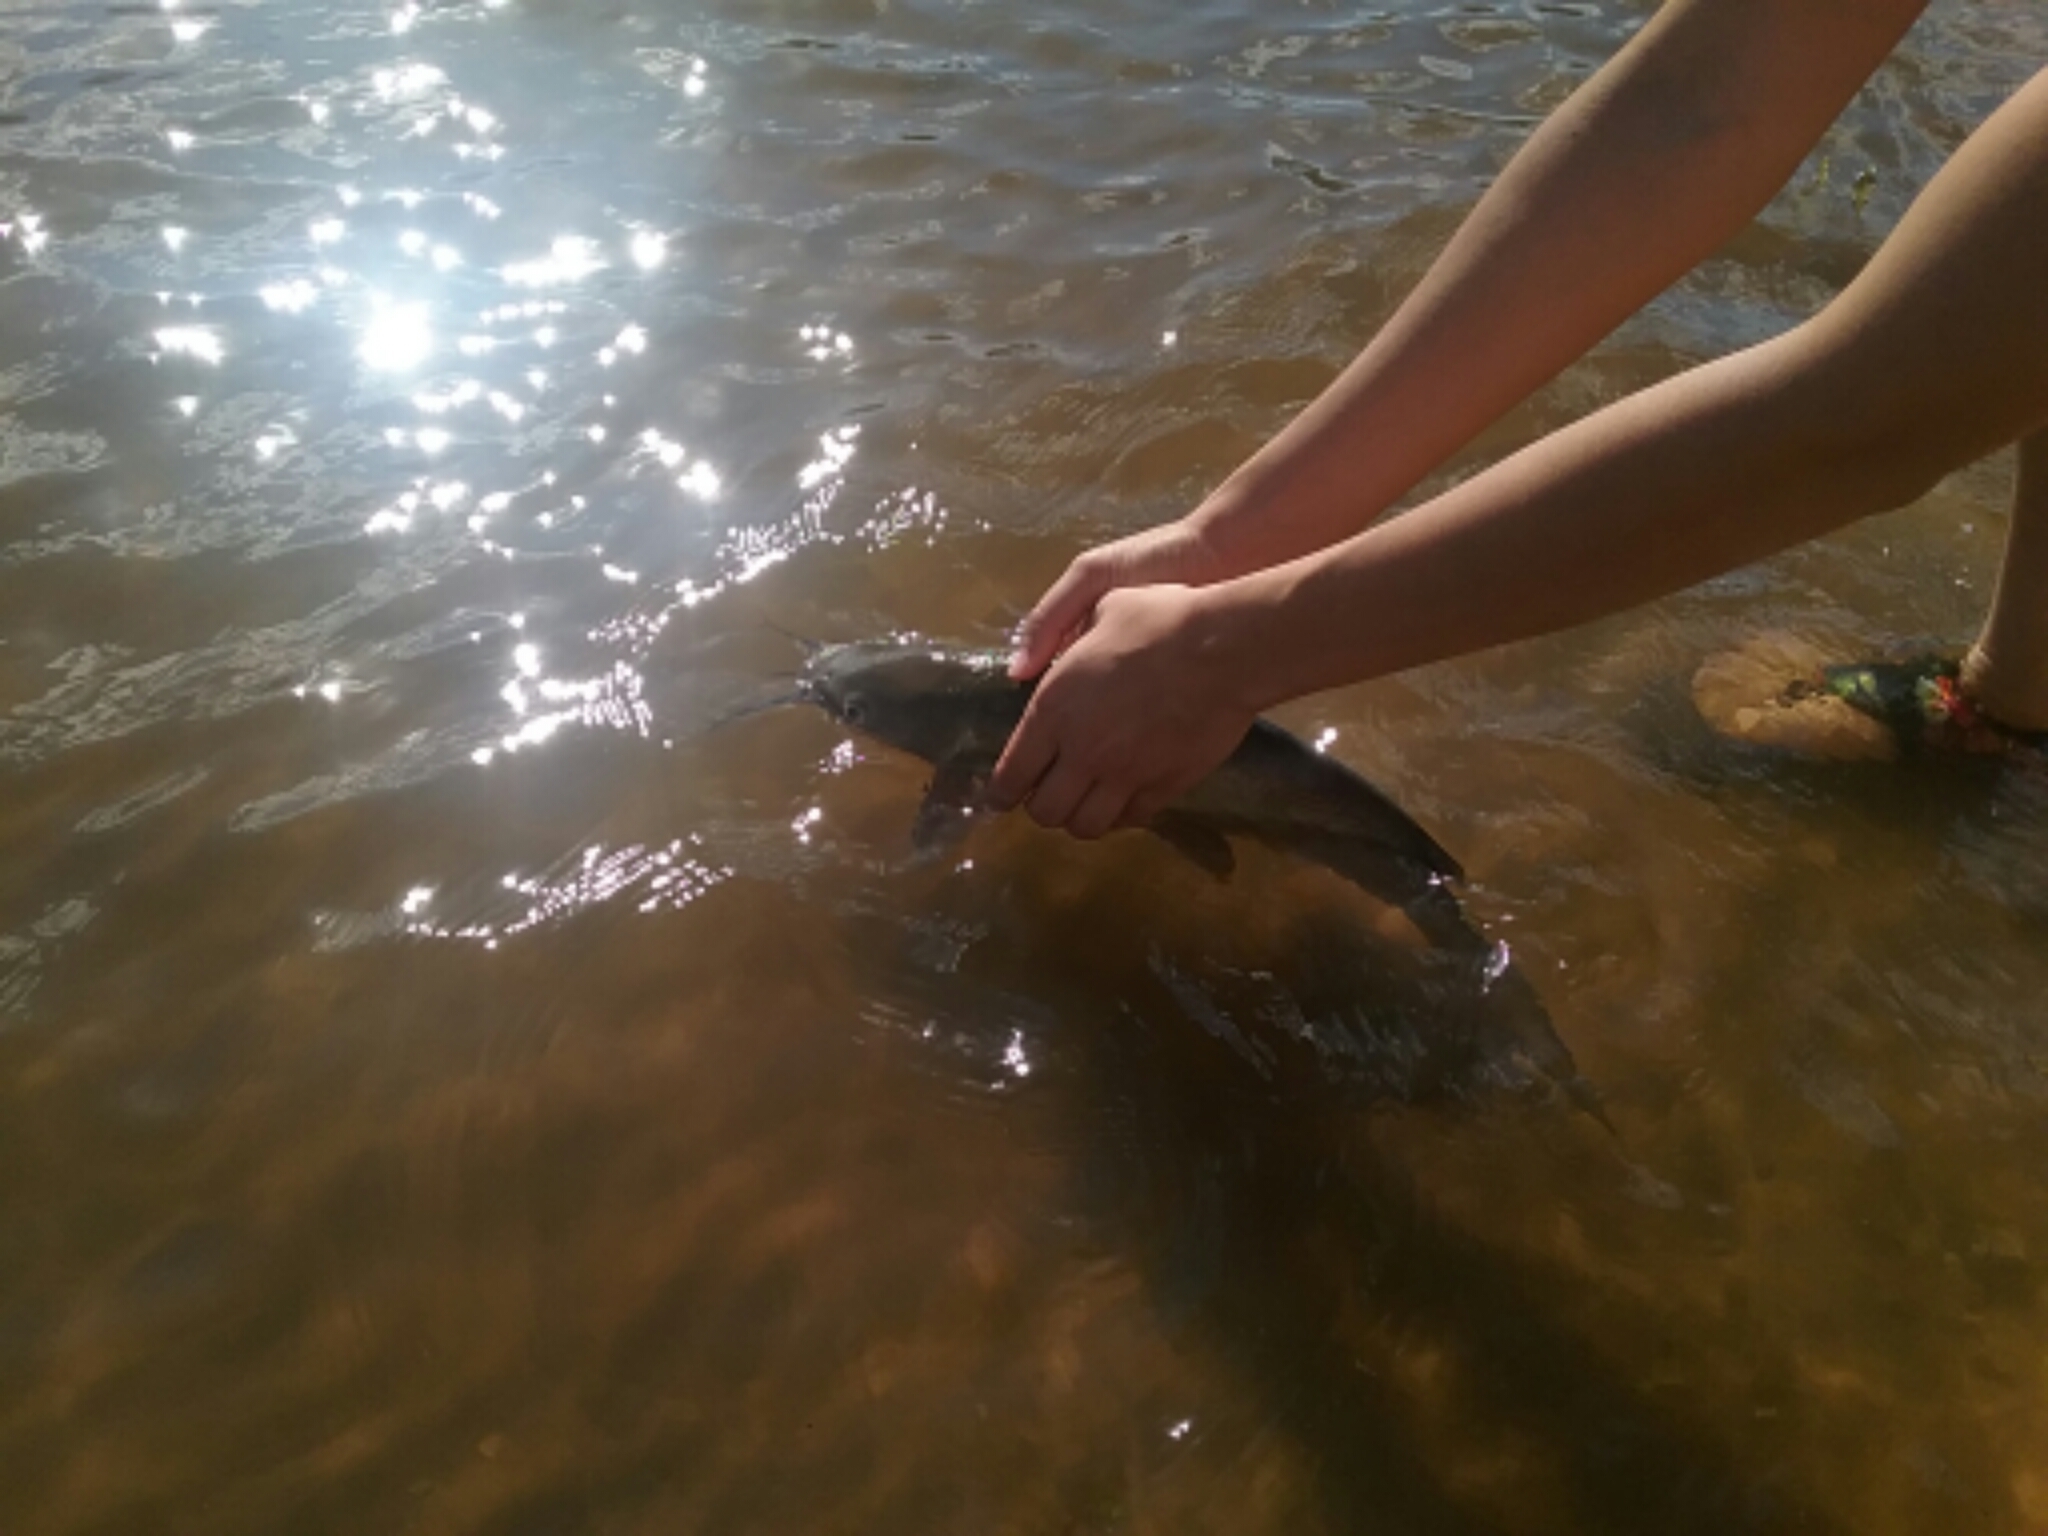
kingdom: Animalia
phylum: Chordata
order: Siluriformes
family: Ictaluridae
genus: Ictalurus
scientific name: Ictalurus punctatus
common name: Channel catfish
